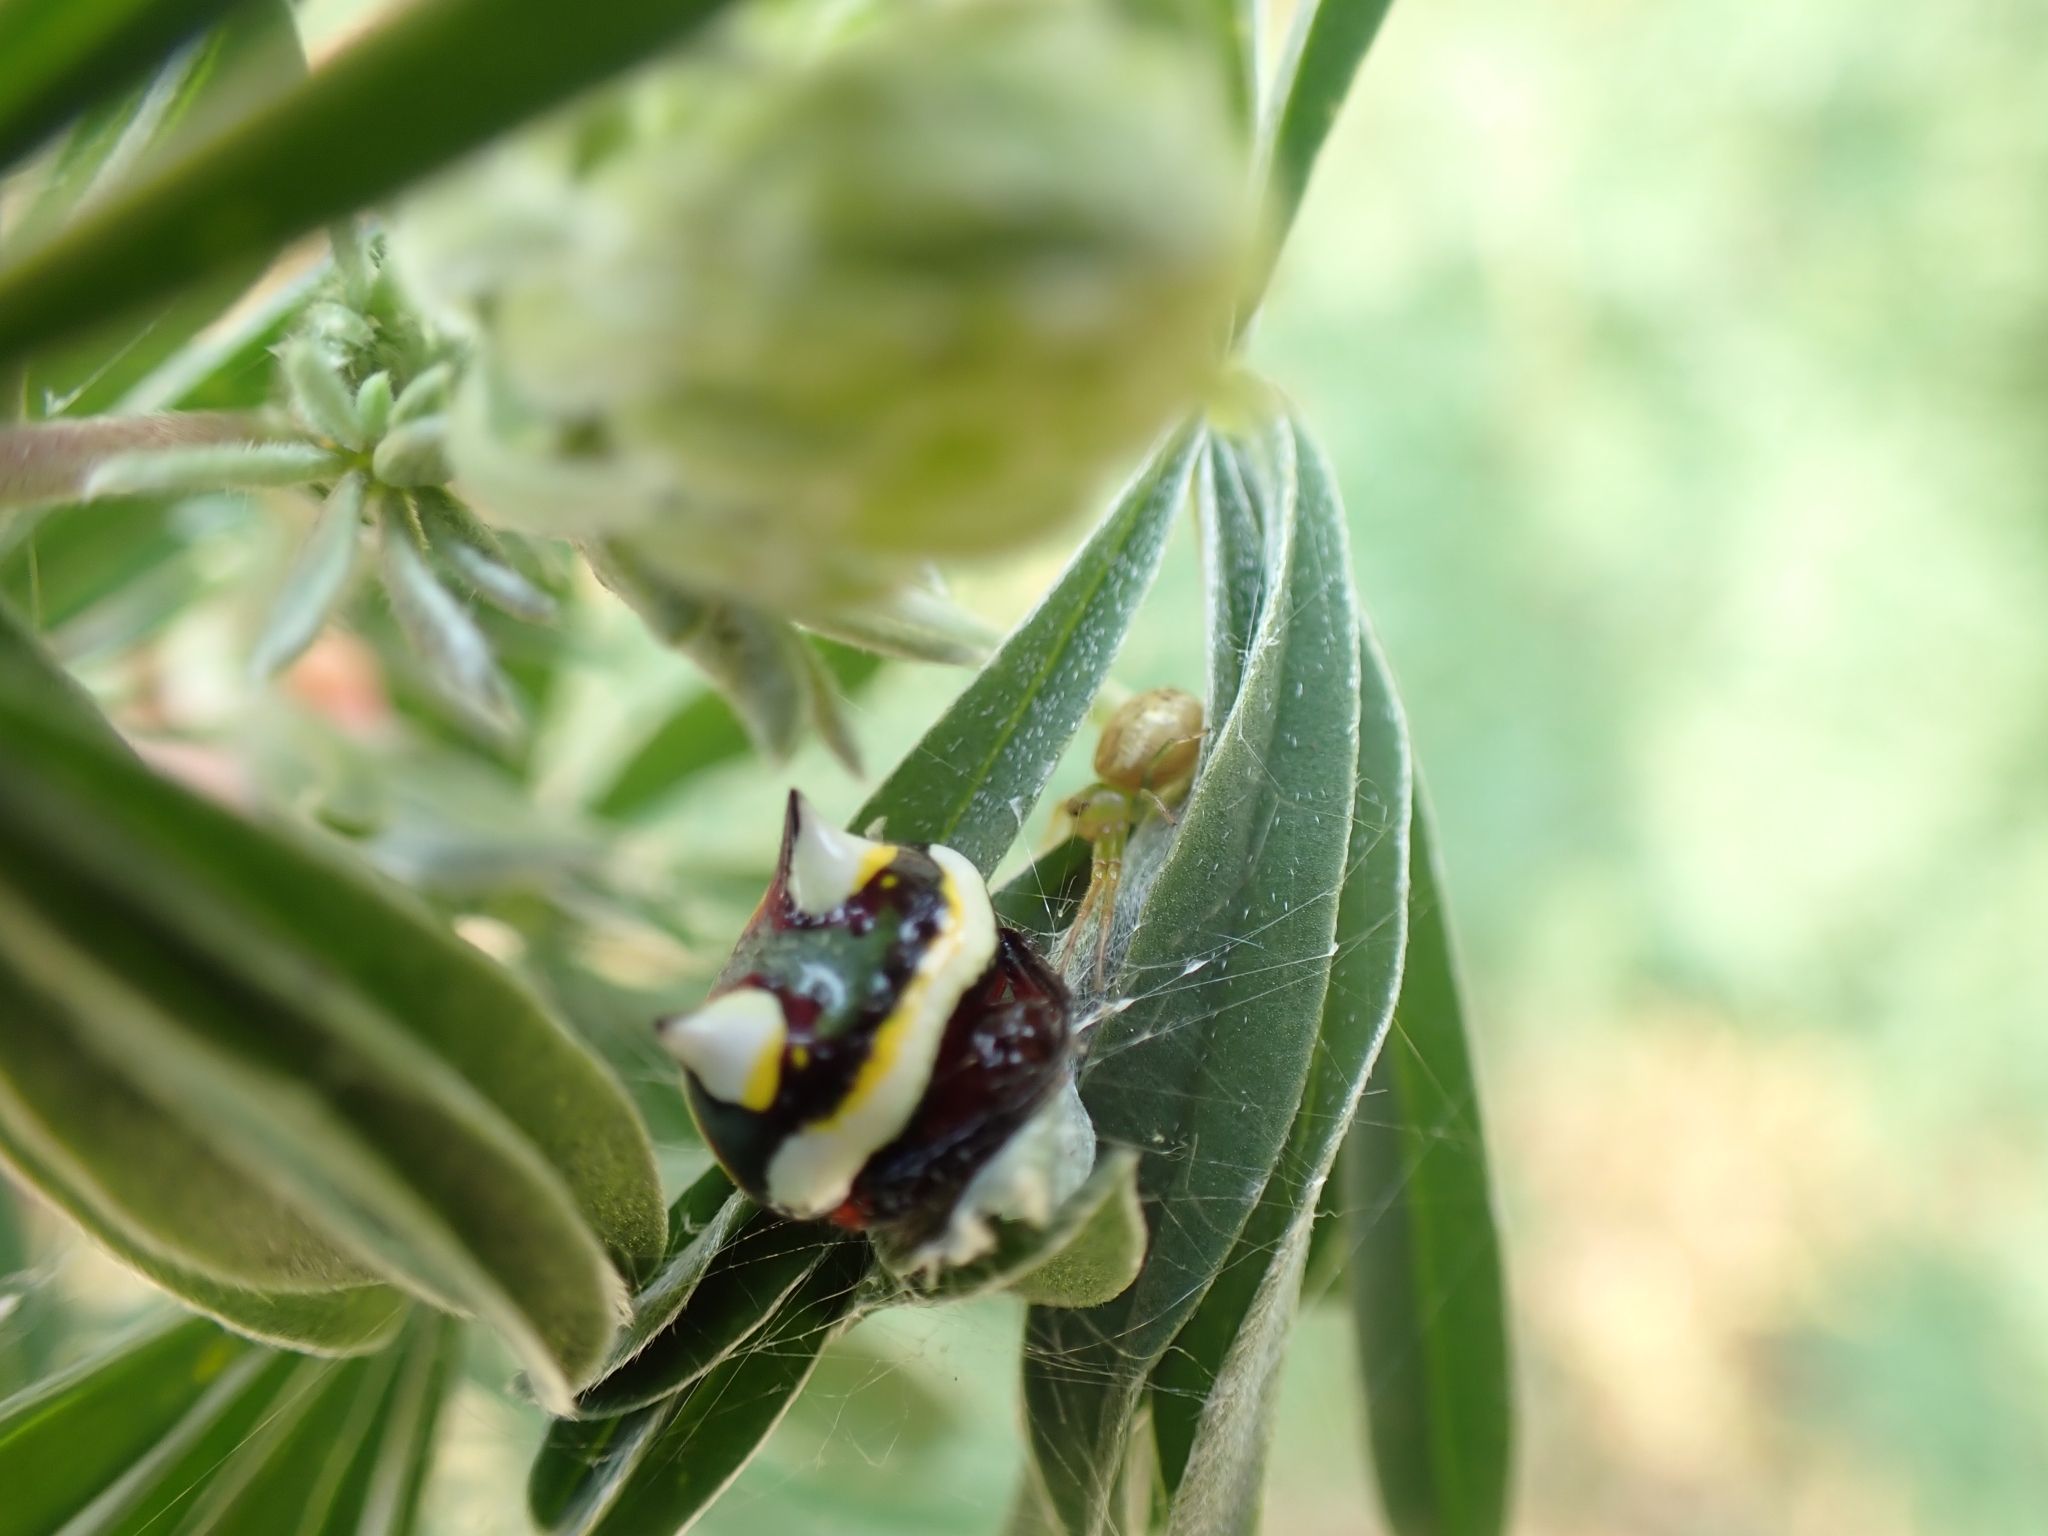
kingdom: Animalia
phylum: Arthropoda
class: Arachnida
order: Araneae
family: Araneidae
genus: Poecilopachys
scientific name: Poecilopachys australasia
